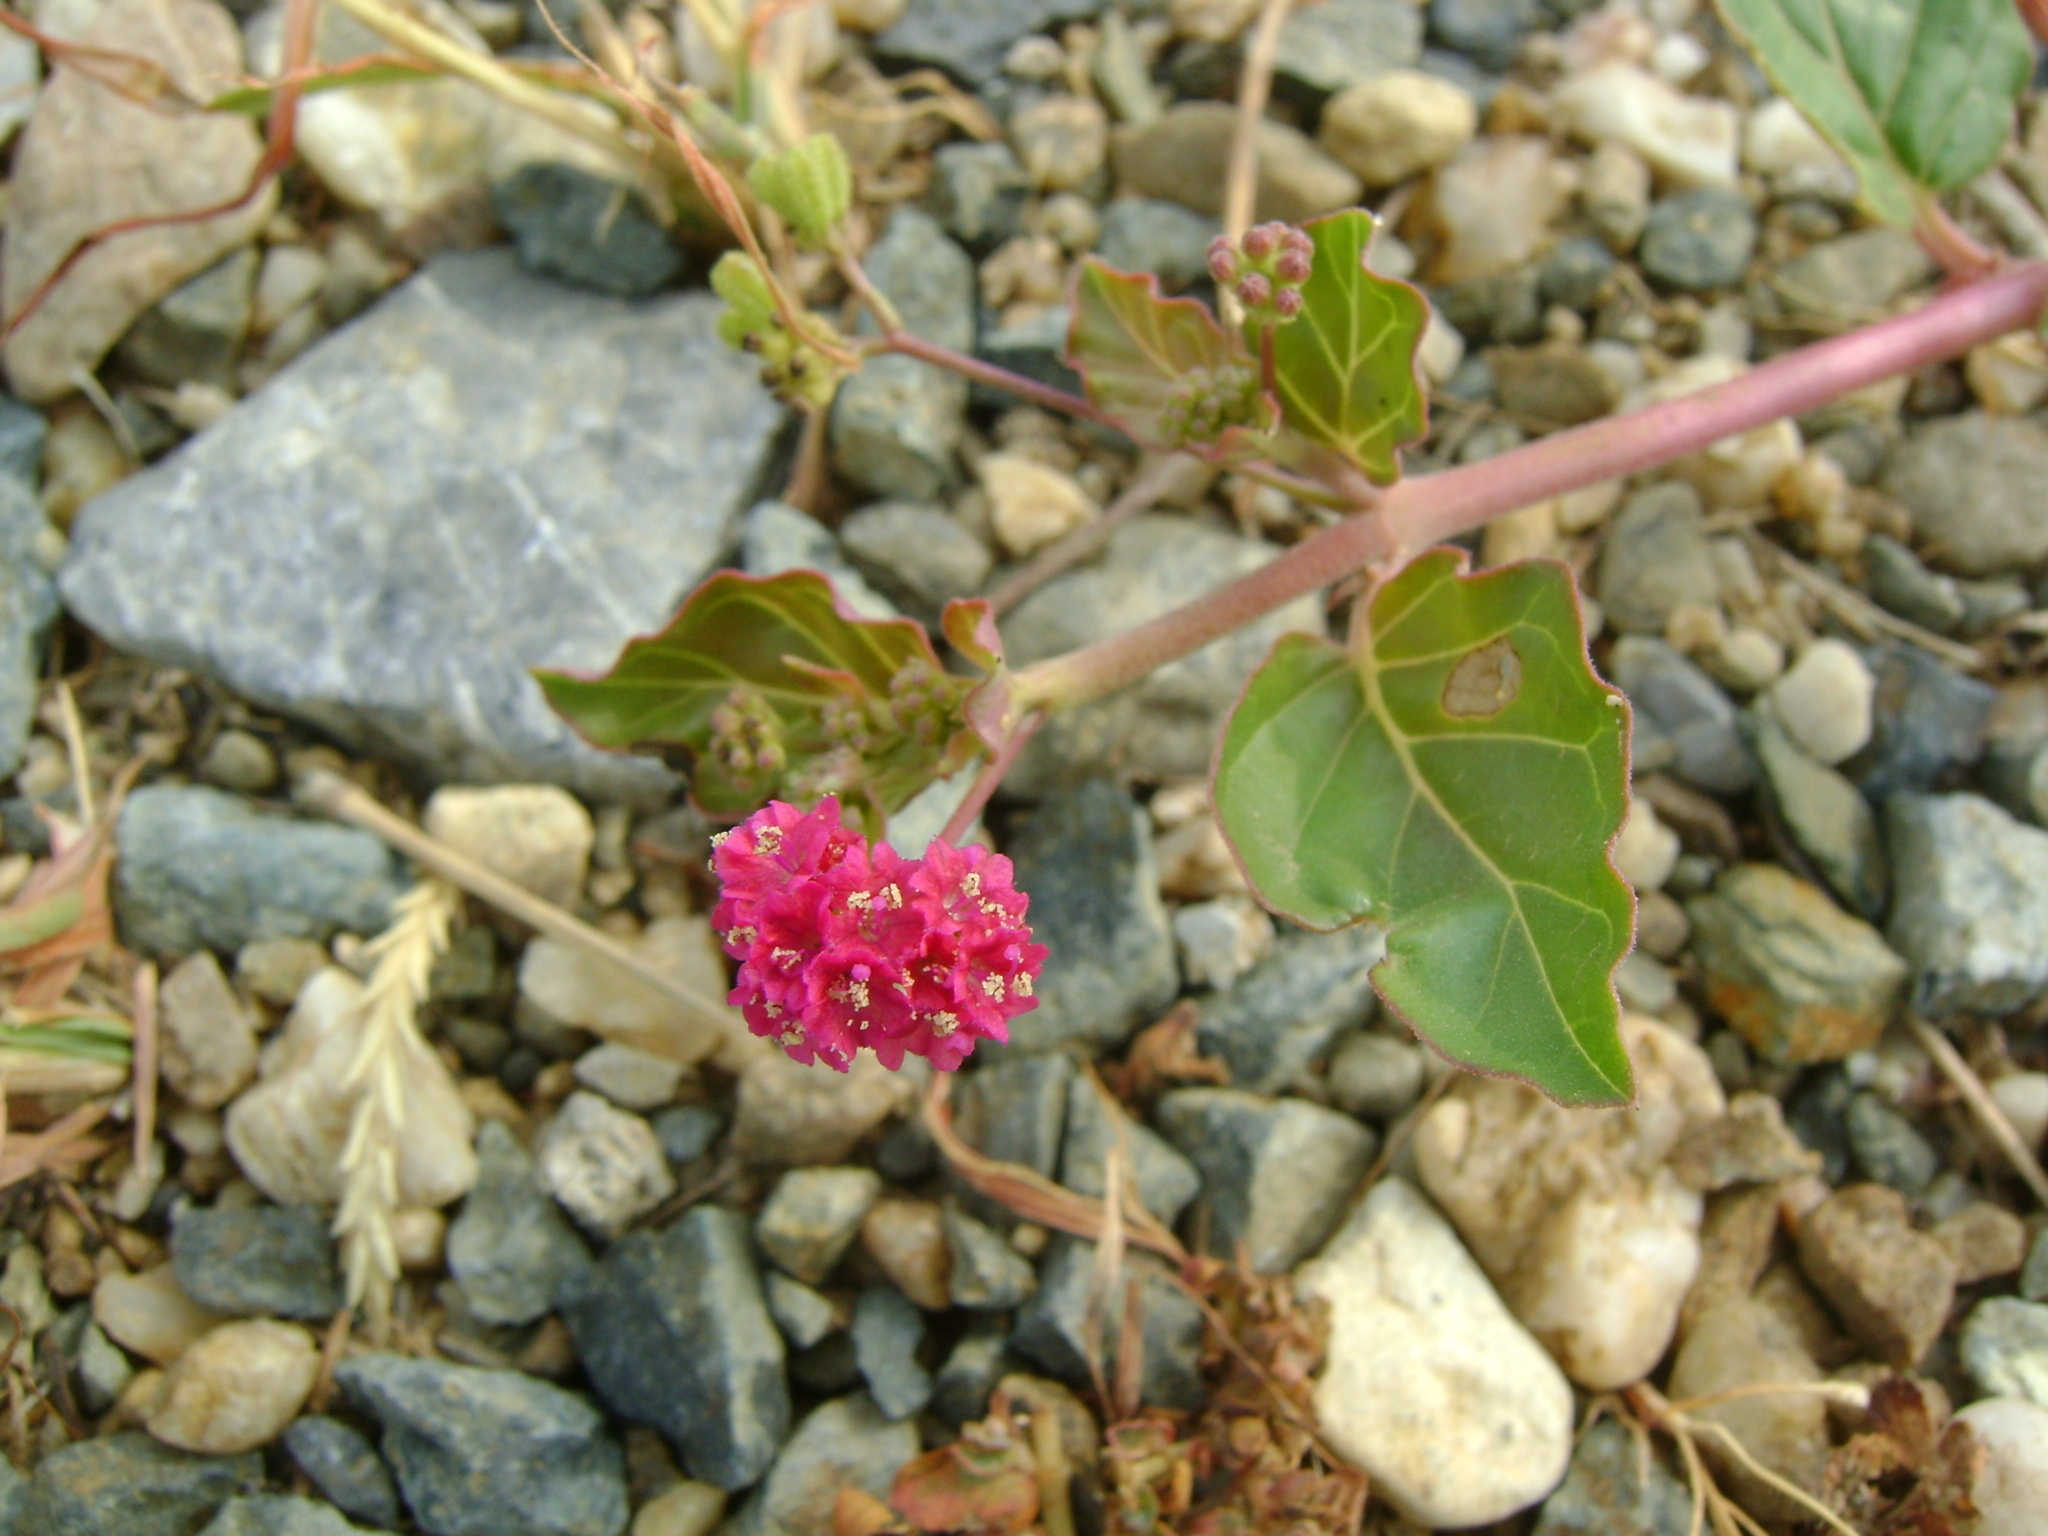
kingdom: Plantae
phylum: Tracheophyta
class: Magnoliopsida
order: Caryophyllales
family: Nyctaginaceae
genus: Boerhavia
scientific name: Boerhavia coccinea
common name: Scarlet spiderling
